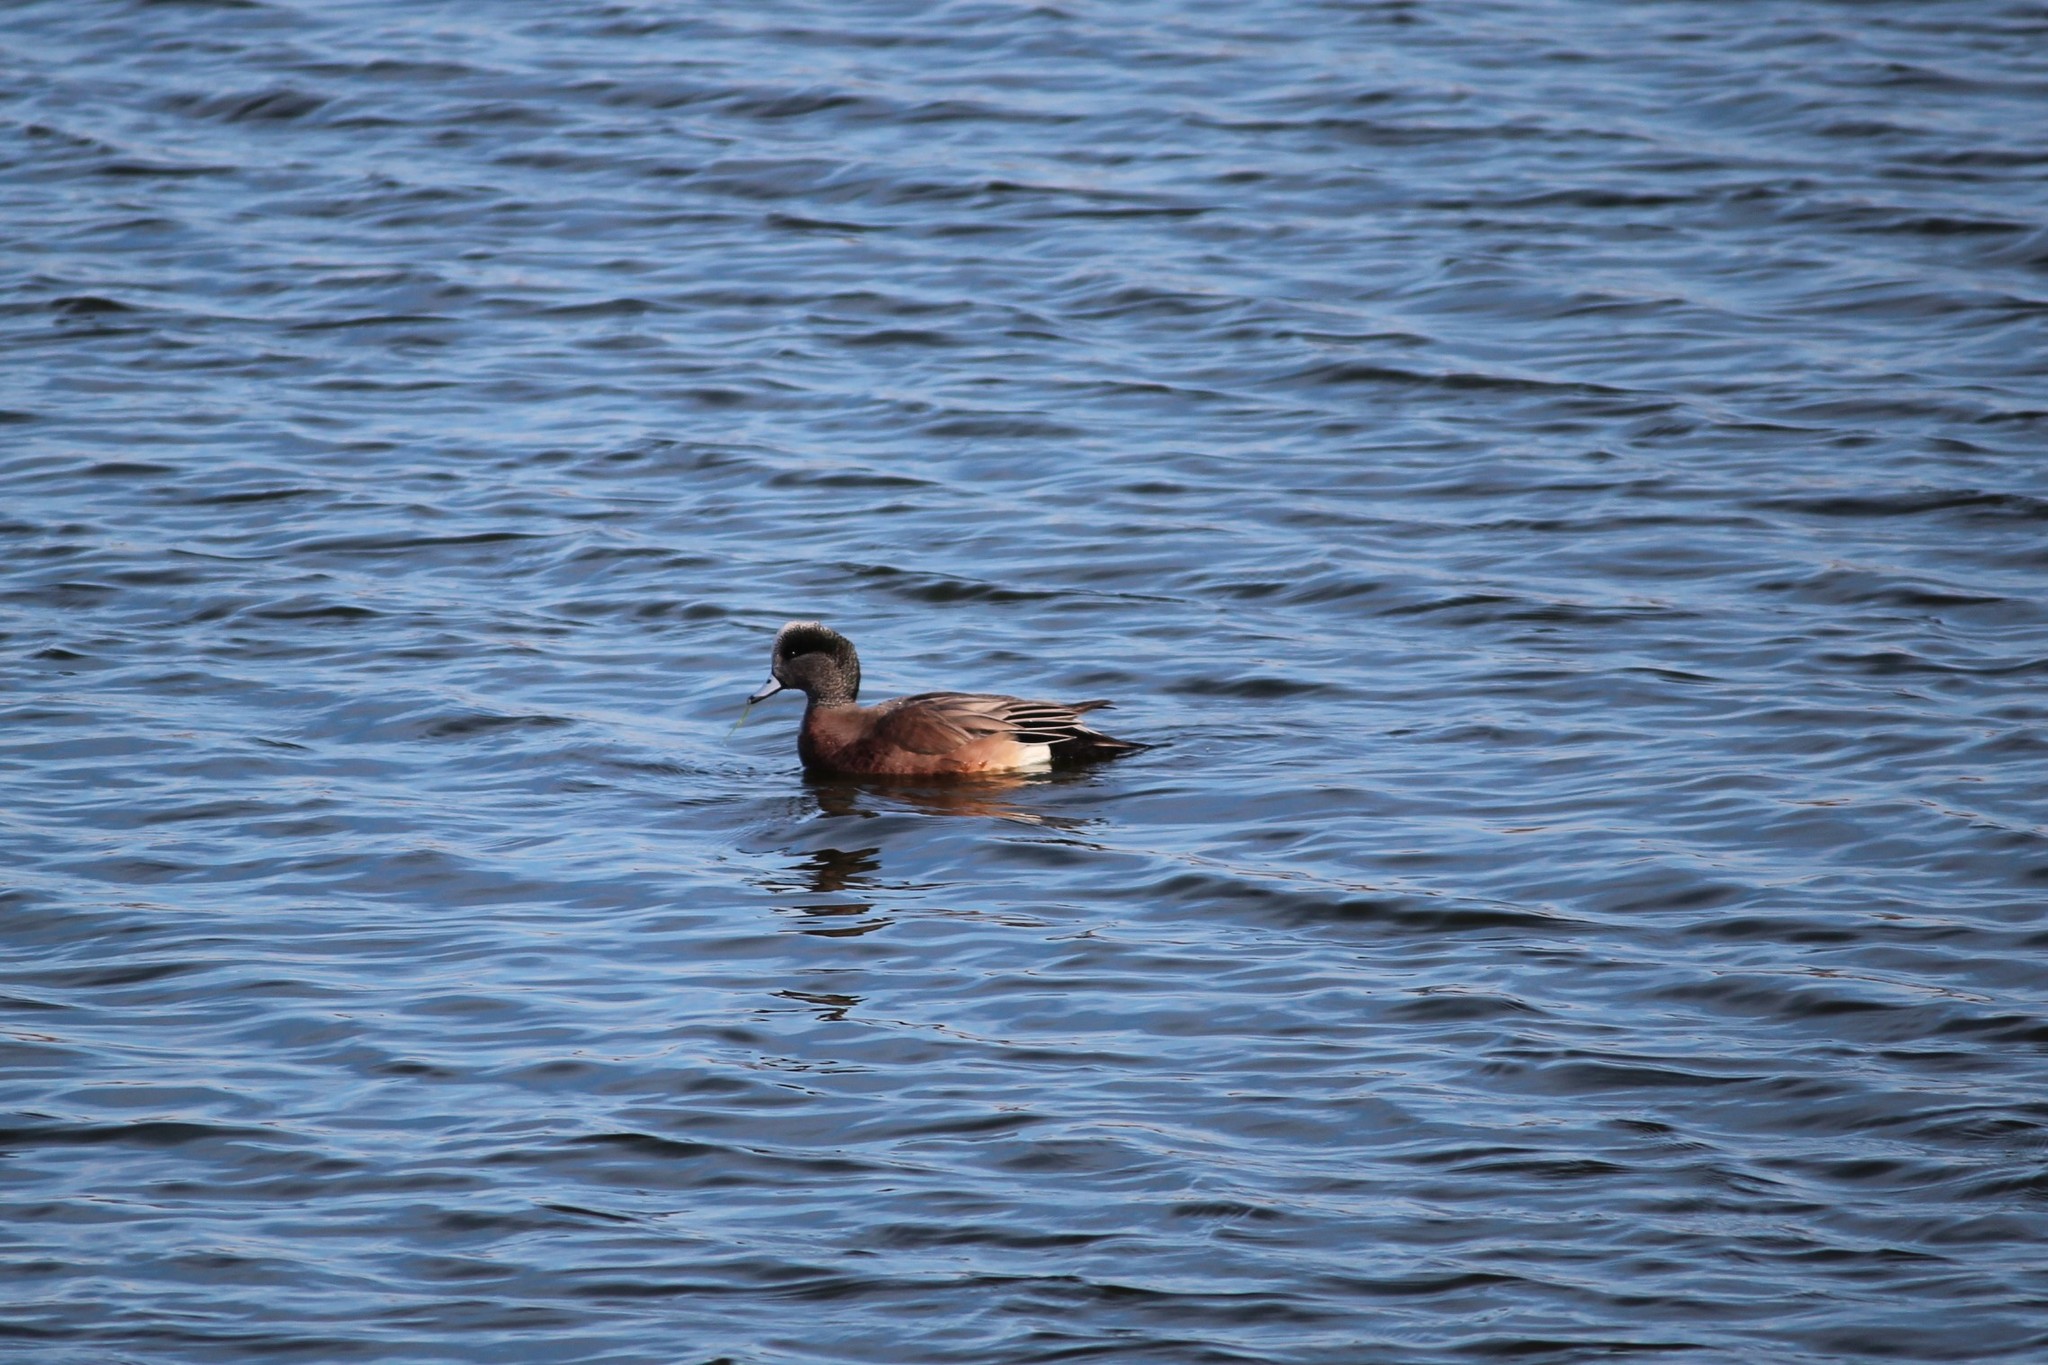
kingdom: Animalia
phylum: Chordata
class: Aves
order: Anseriformes
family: Anatidae
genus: Mareca
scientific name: Mareca americana
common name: American wigeon
